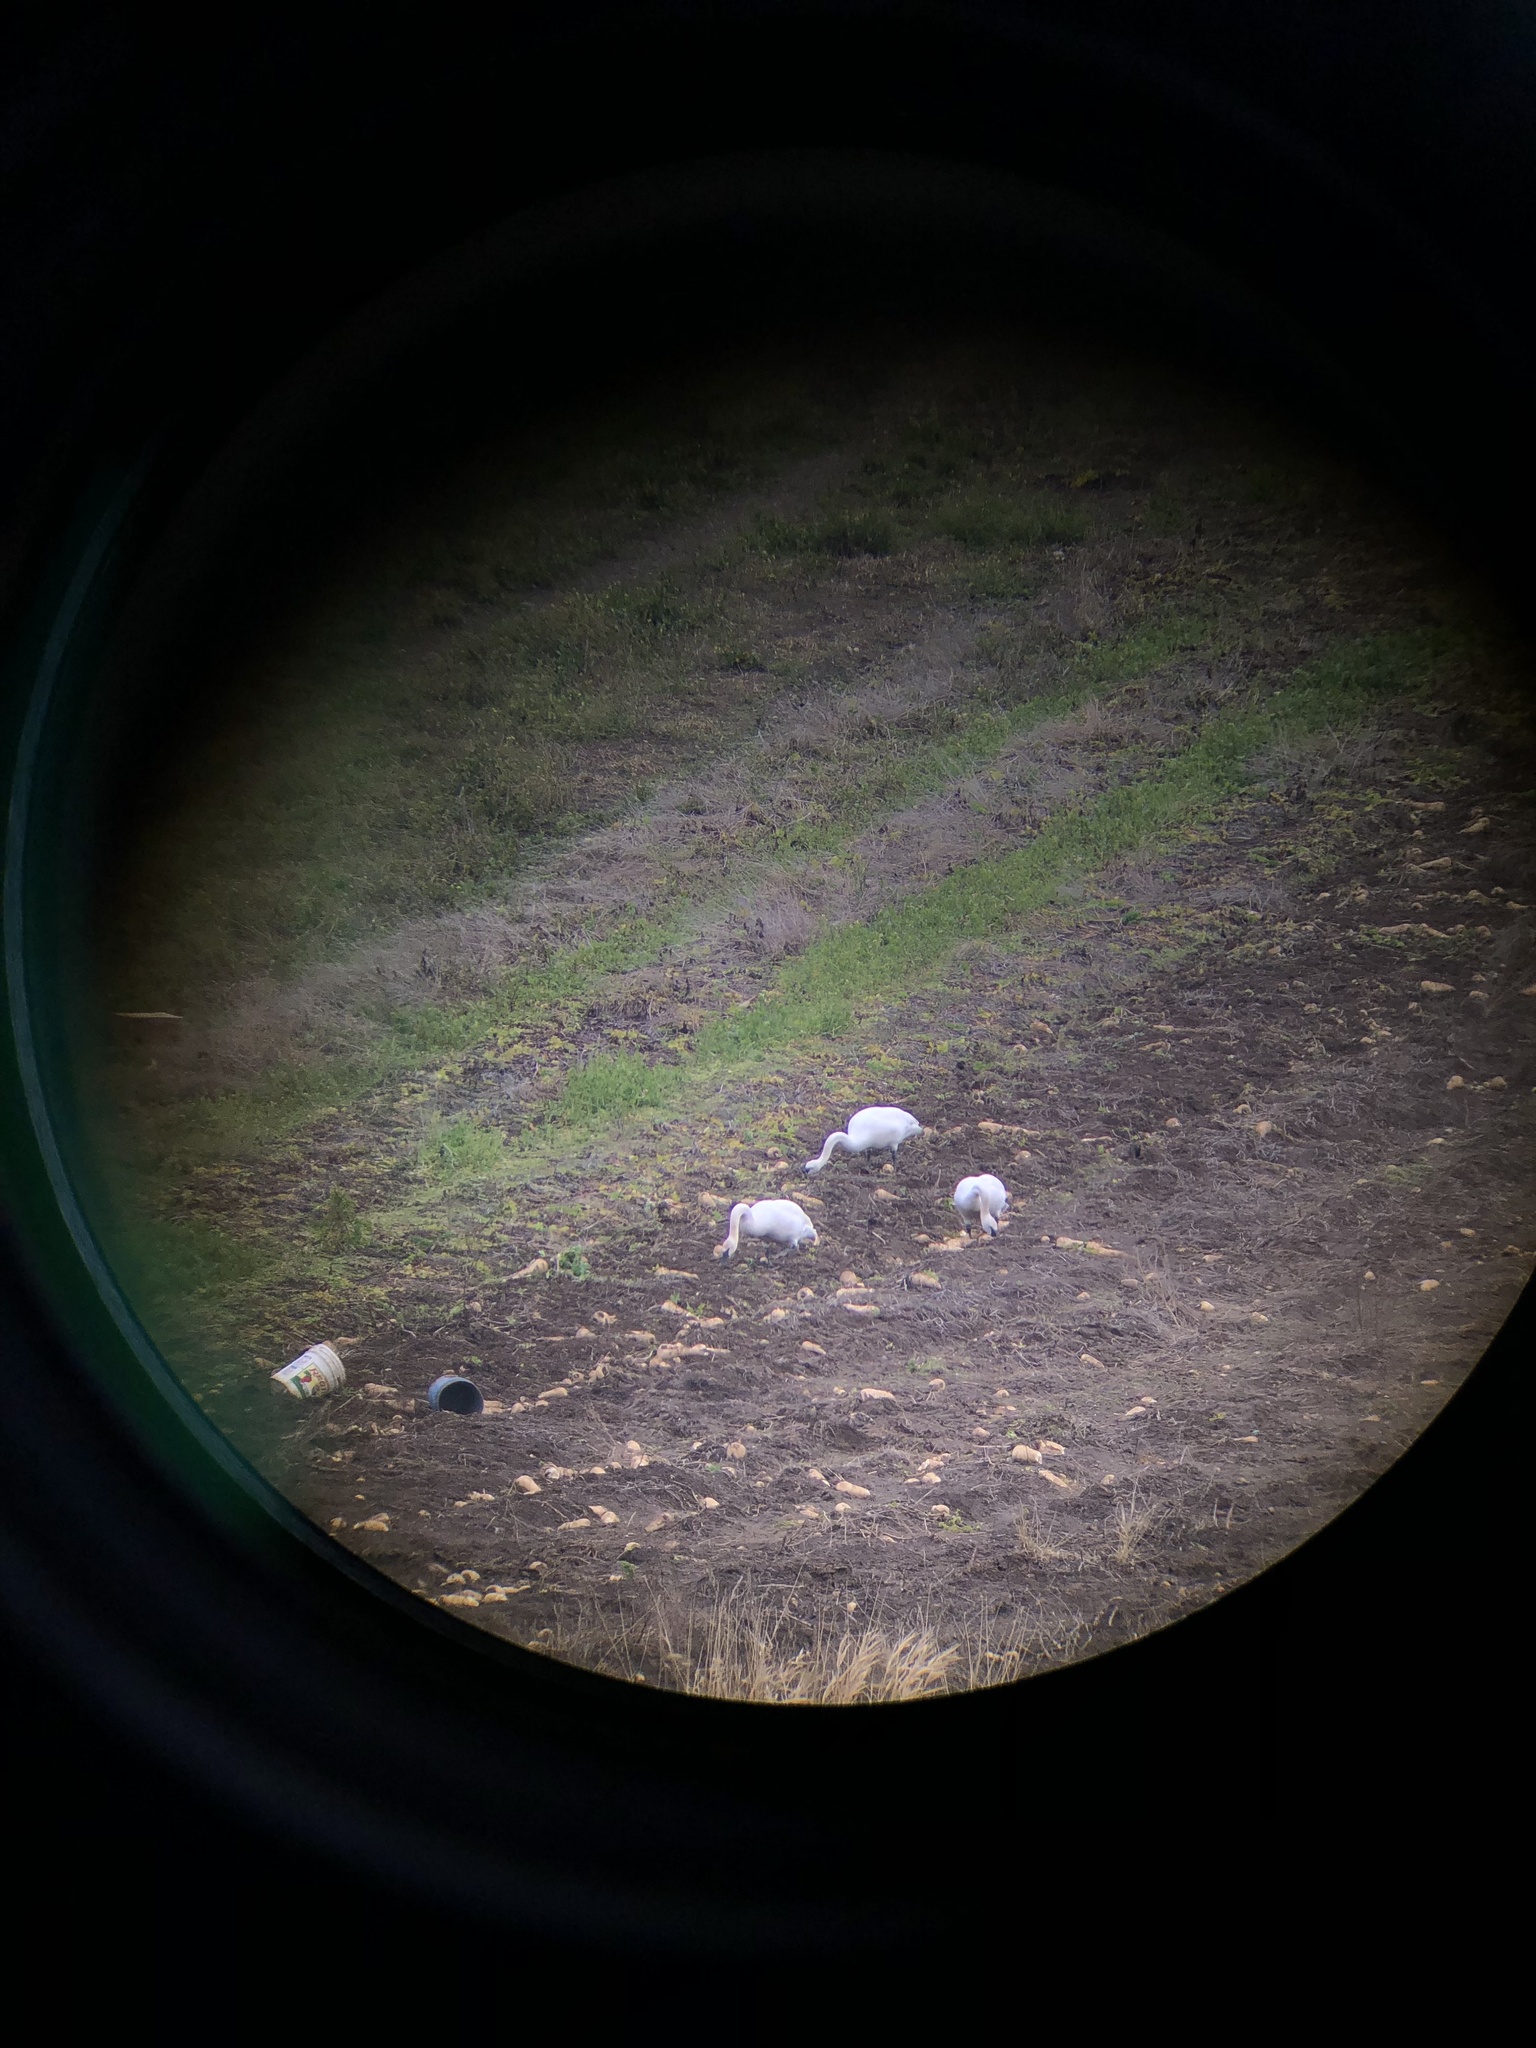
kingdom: Animalia
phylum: Chordata
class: Aves
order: Anseriformes
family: Anatidae
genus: Cygnus
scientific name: Cygnus buccinator
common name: Trumpeter swan
